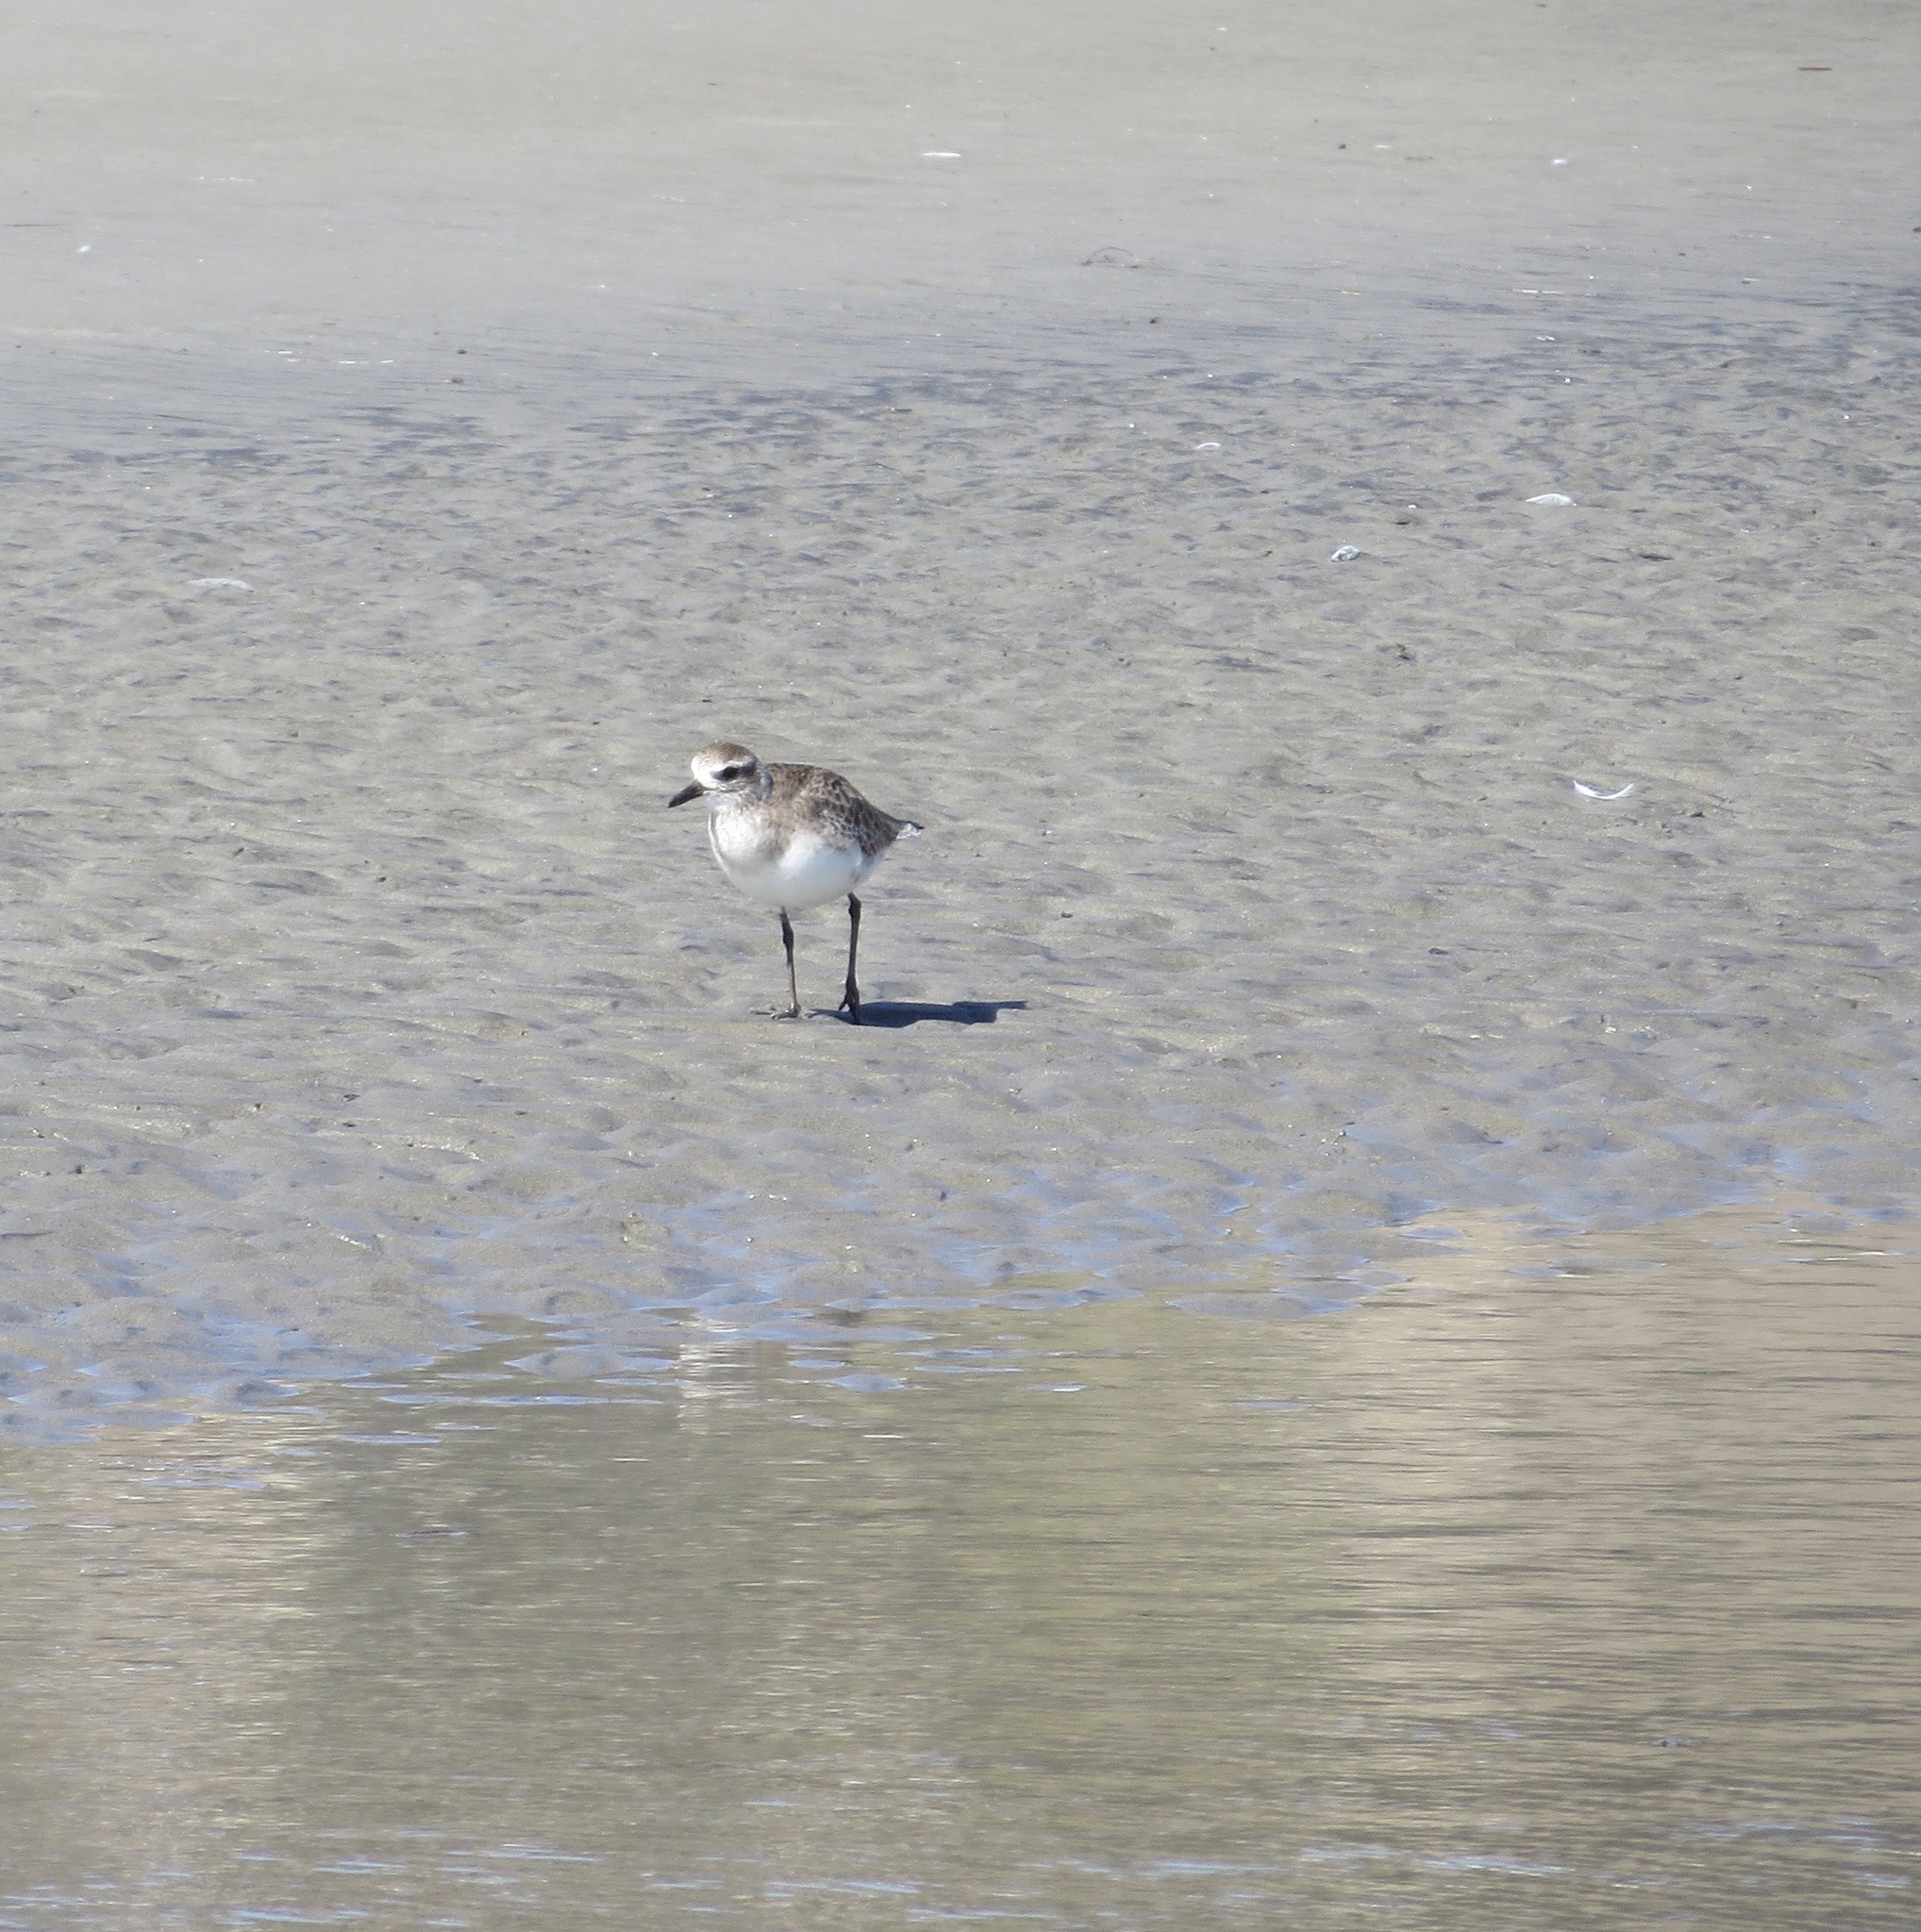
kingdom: Animalia
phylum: Chordata
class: Aves
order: Charadriiformes
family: Charadriidae
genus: Pluvialis
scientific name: Pluvialis squatarola
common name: Grey plover
